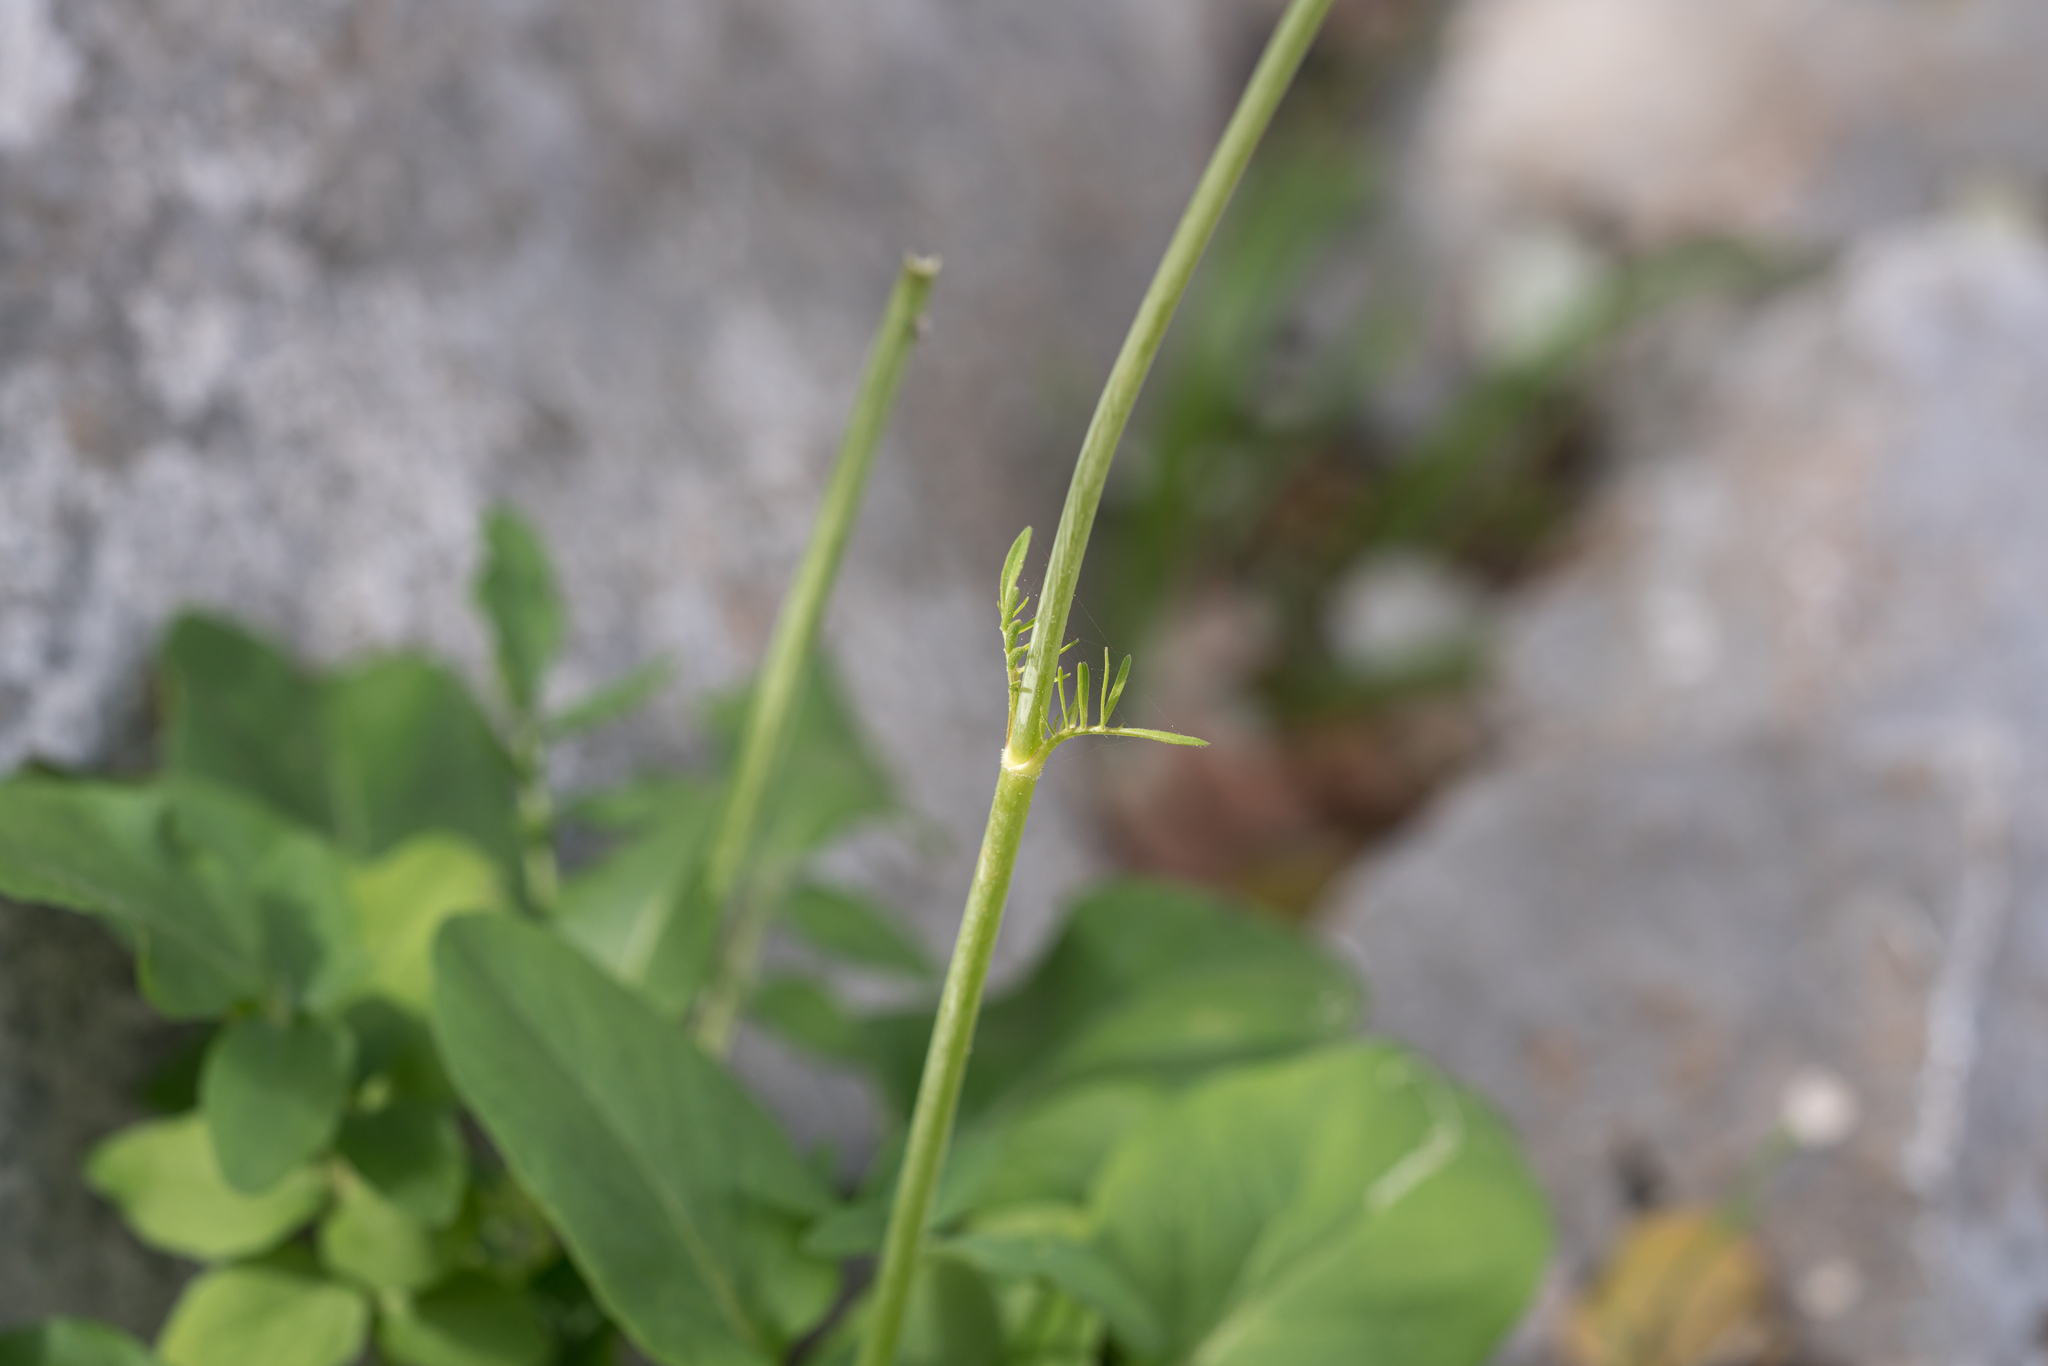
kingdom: Plantae
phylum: Tracheophyta
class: Magnoliopsida
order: Dipsacales
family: Caprifoliaceae
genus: Centranthus
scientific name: Centranthus calcitrapae
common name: Annual valerian
